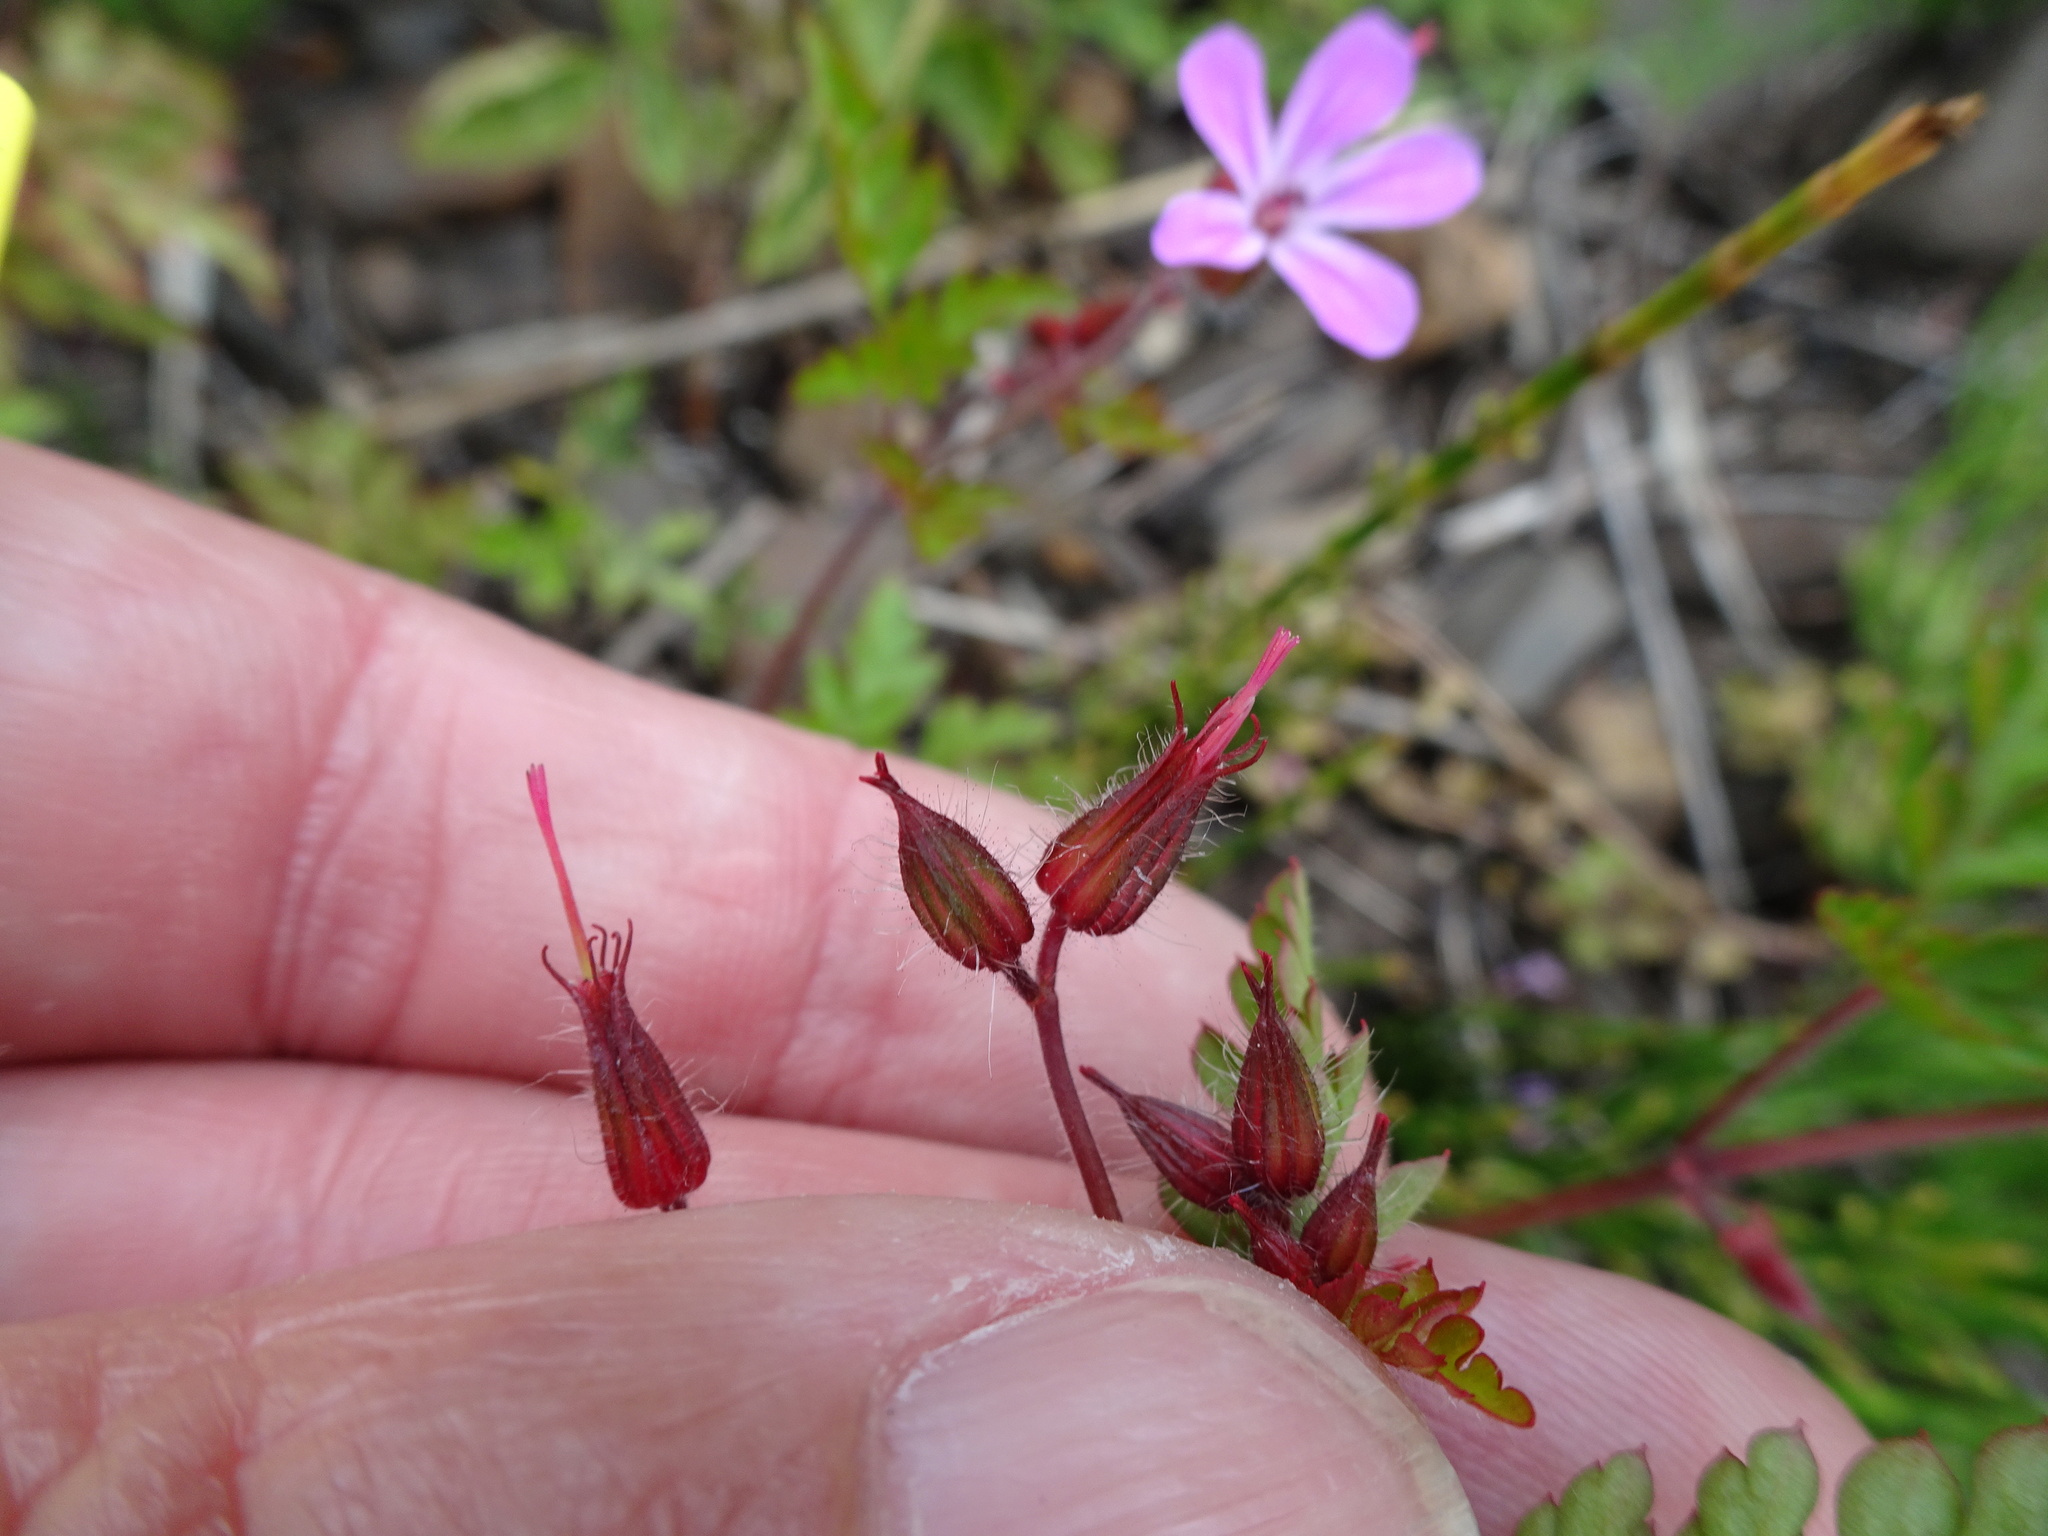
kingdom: Plantae
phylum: Tracheophyta
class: Magnoliopsida
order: Geraniales
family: Geraniaceae
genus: Geranium
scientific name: Geranium robertianum
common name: Herb-robert
